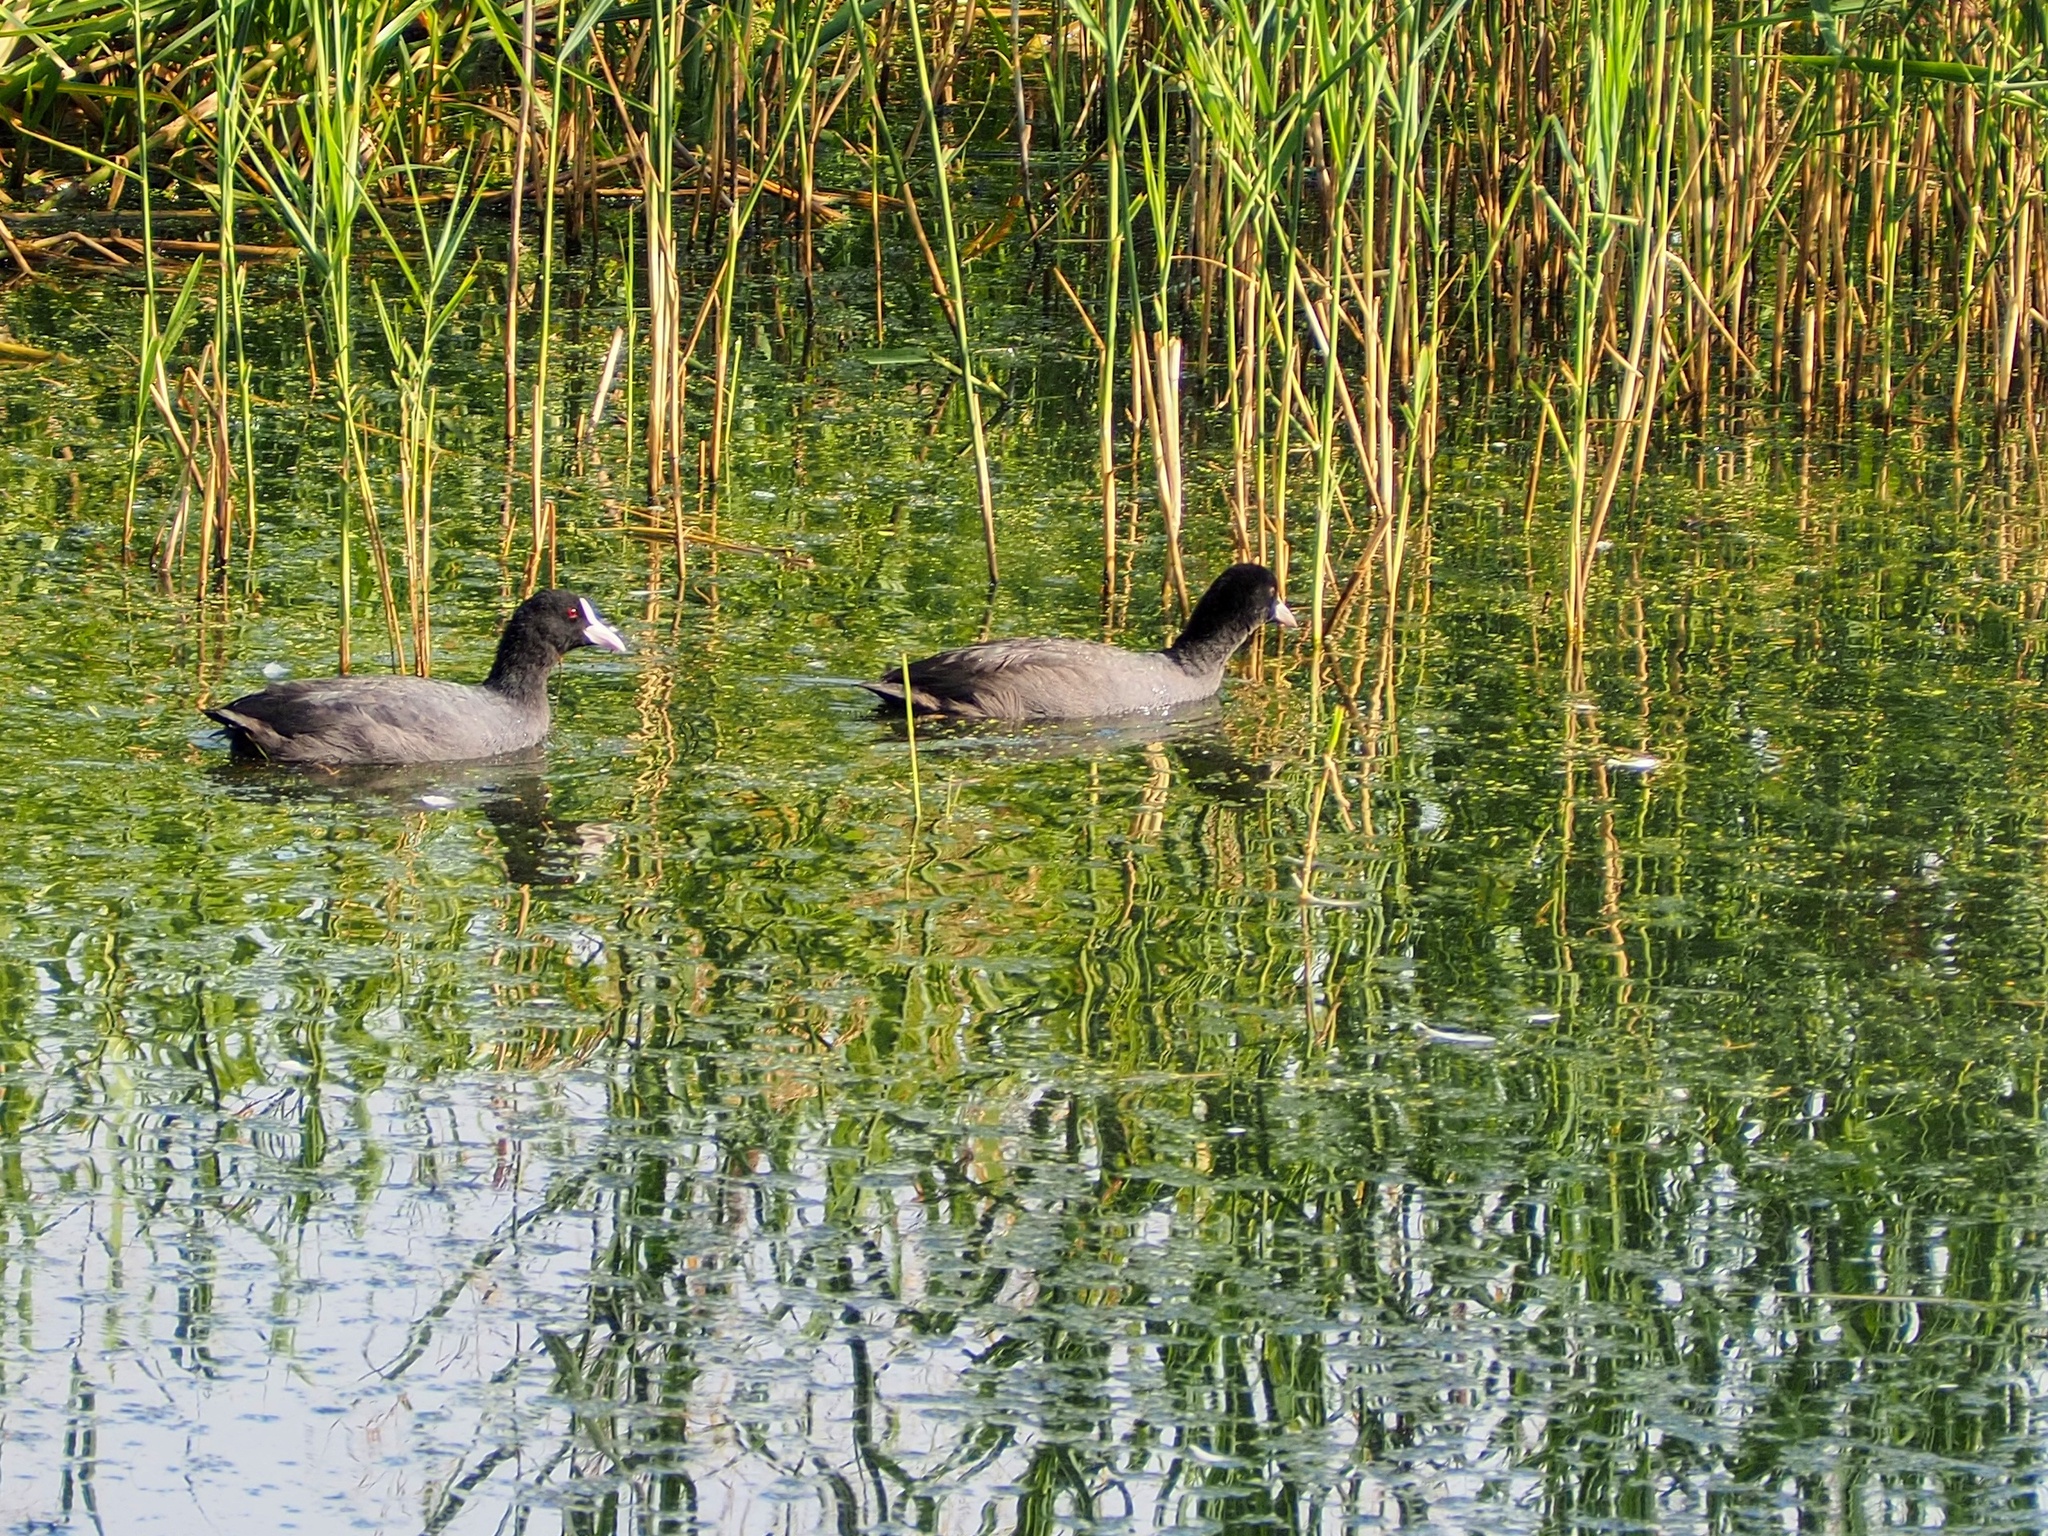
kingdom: Animalia
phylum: Chordata
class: Aves
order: Gruiformes
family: Rallidae
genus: Fulica
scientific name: Fulica atra
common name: Eurasian coot
